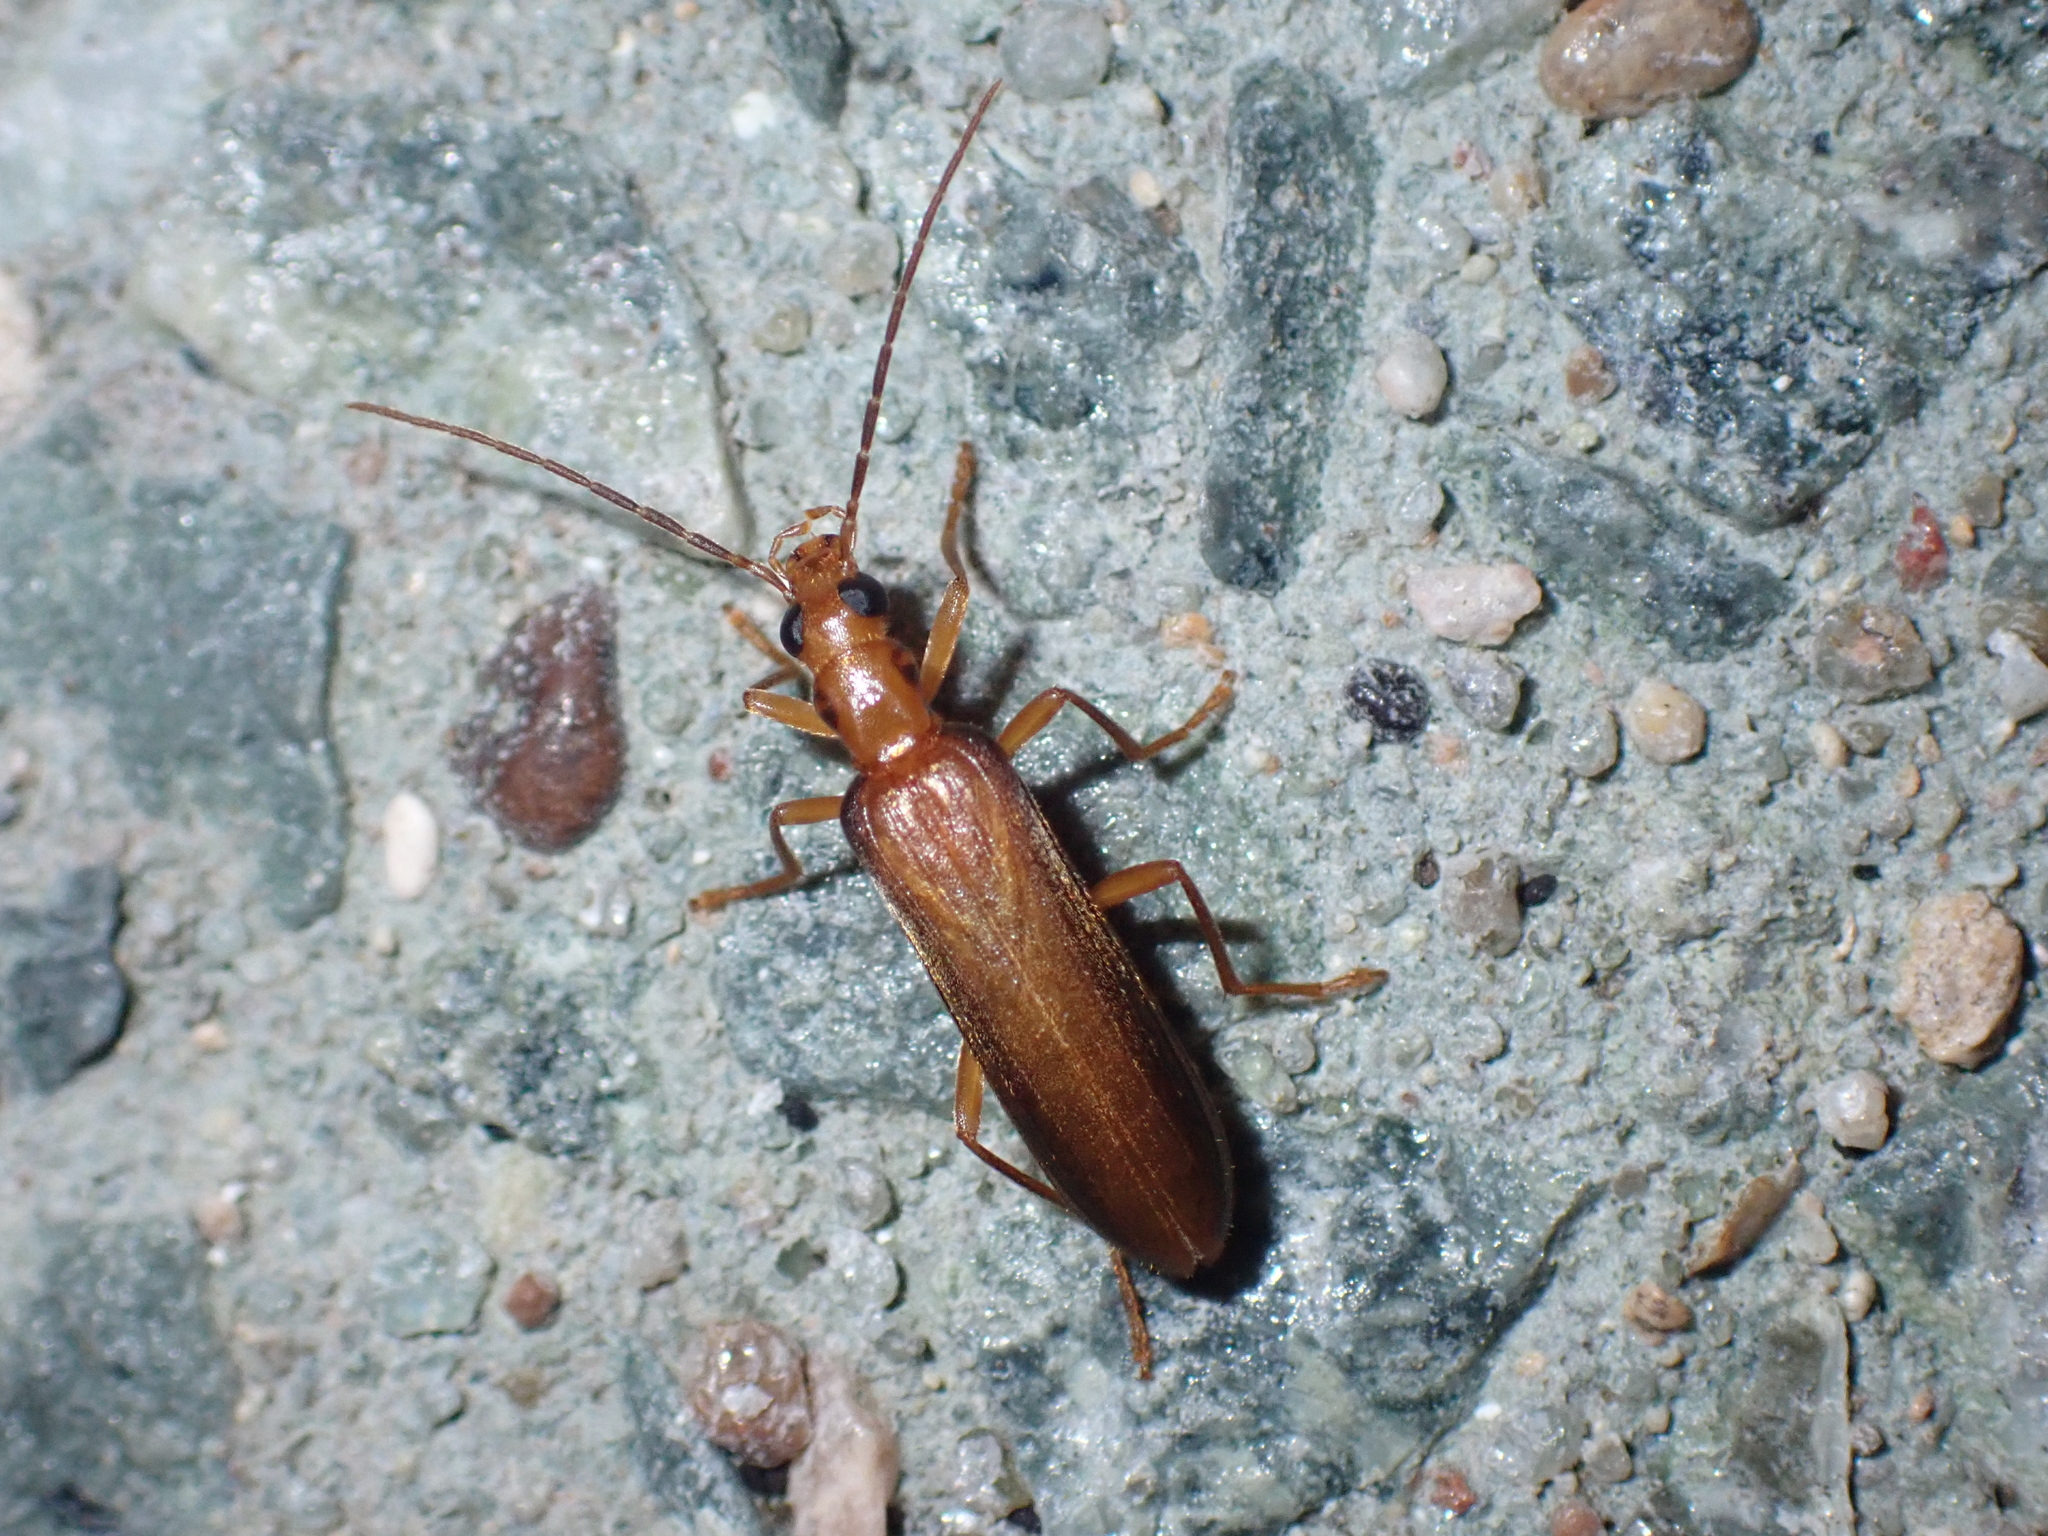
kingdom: Animalia
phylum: Arthropoda
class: Insecta
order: Coleoptera
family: Oedemeridae
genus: Nacerdes
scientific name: Nacerdes carniolica
